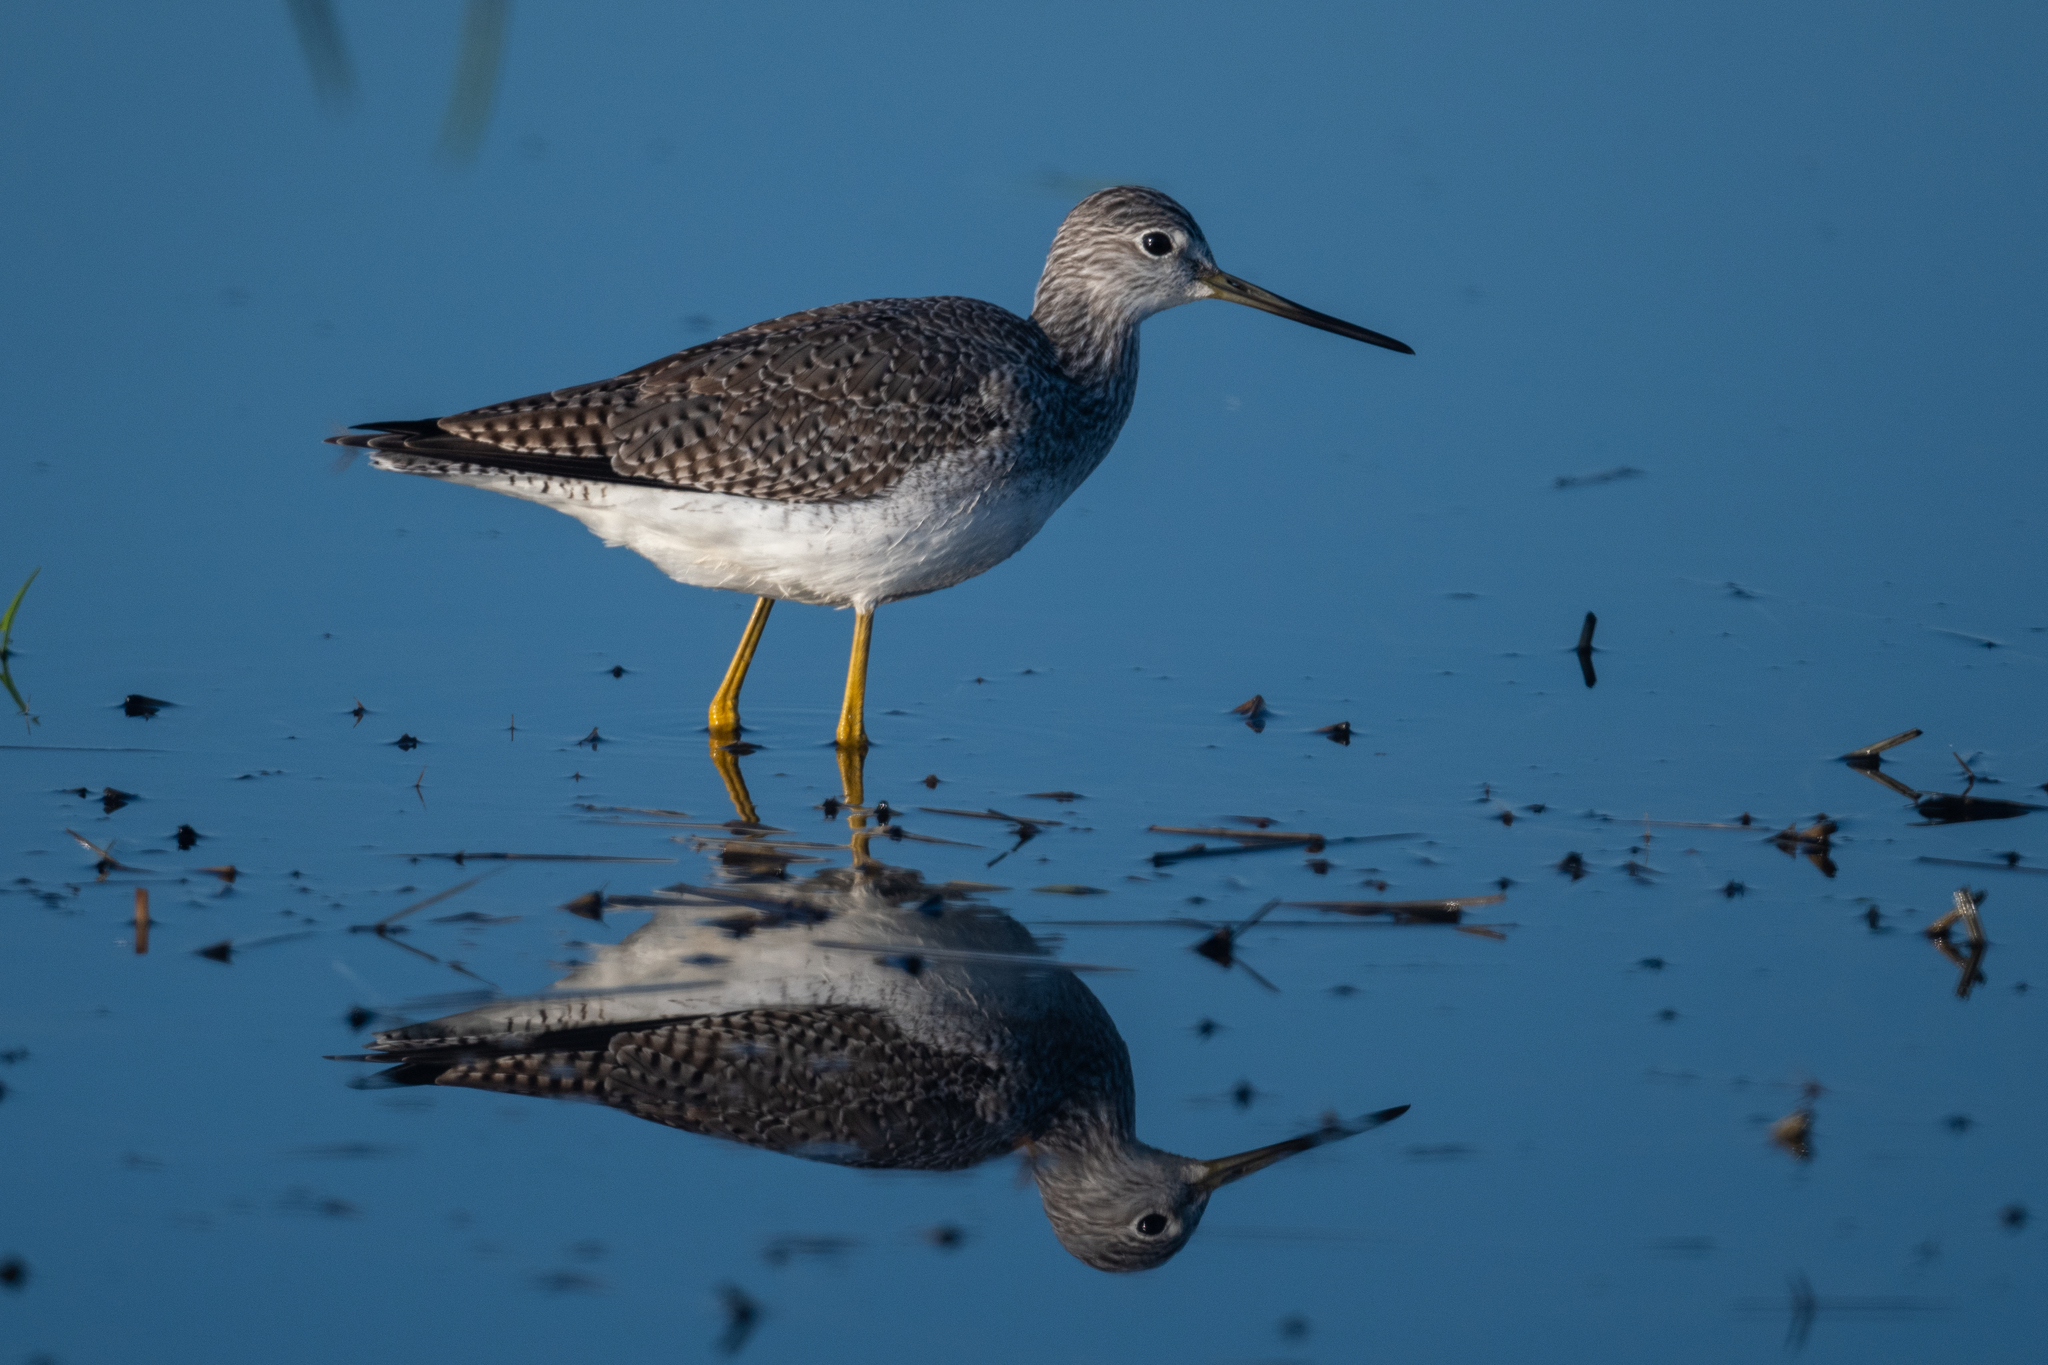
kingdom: Animalia
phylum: Chordata
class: Aves
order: Charadriiformes
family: Scolopacidae
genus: Tringa
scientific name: Tringa melanoleuca
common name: Greater yellowlegs
